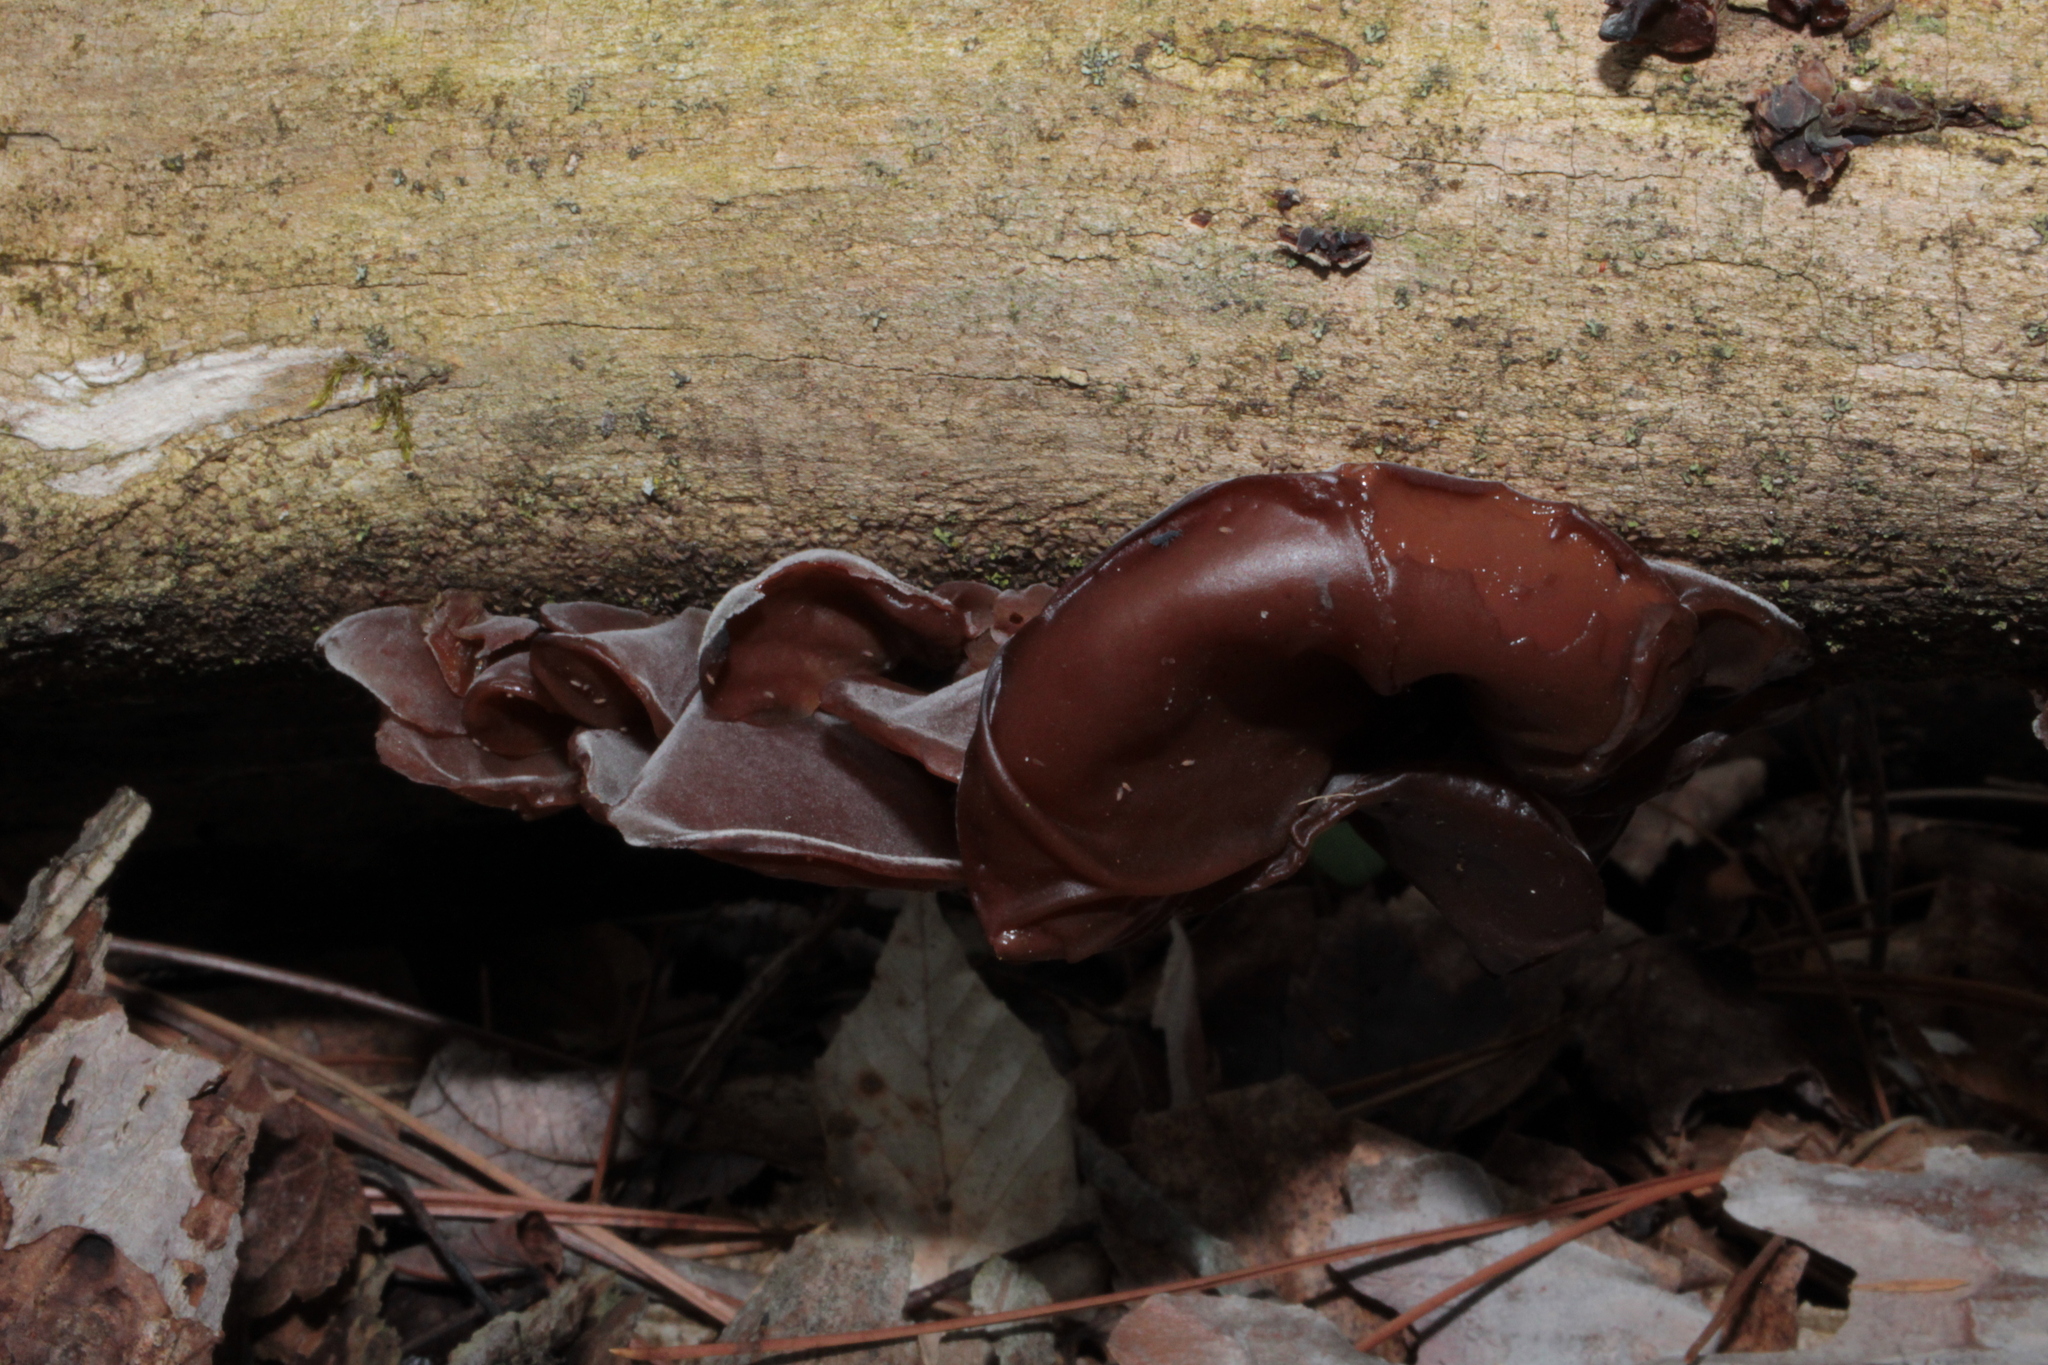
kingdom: Fungi
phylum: Basidiomycota
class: Agaricomycetes
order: Auriculariales
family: Auriculariaceae
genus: Auricularia
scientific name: Auricularia angiospermarum
